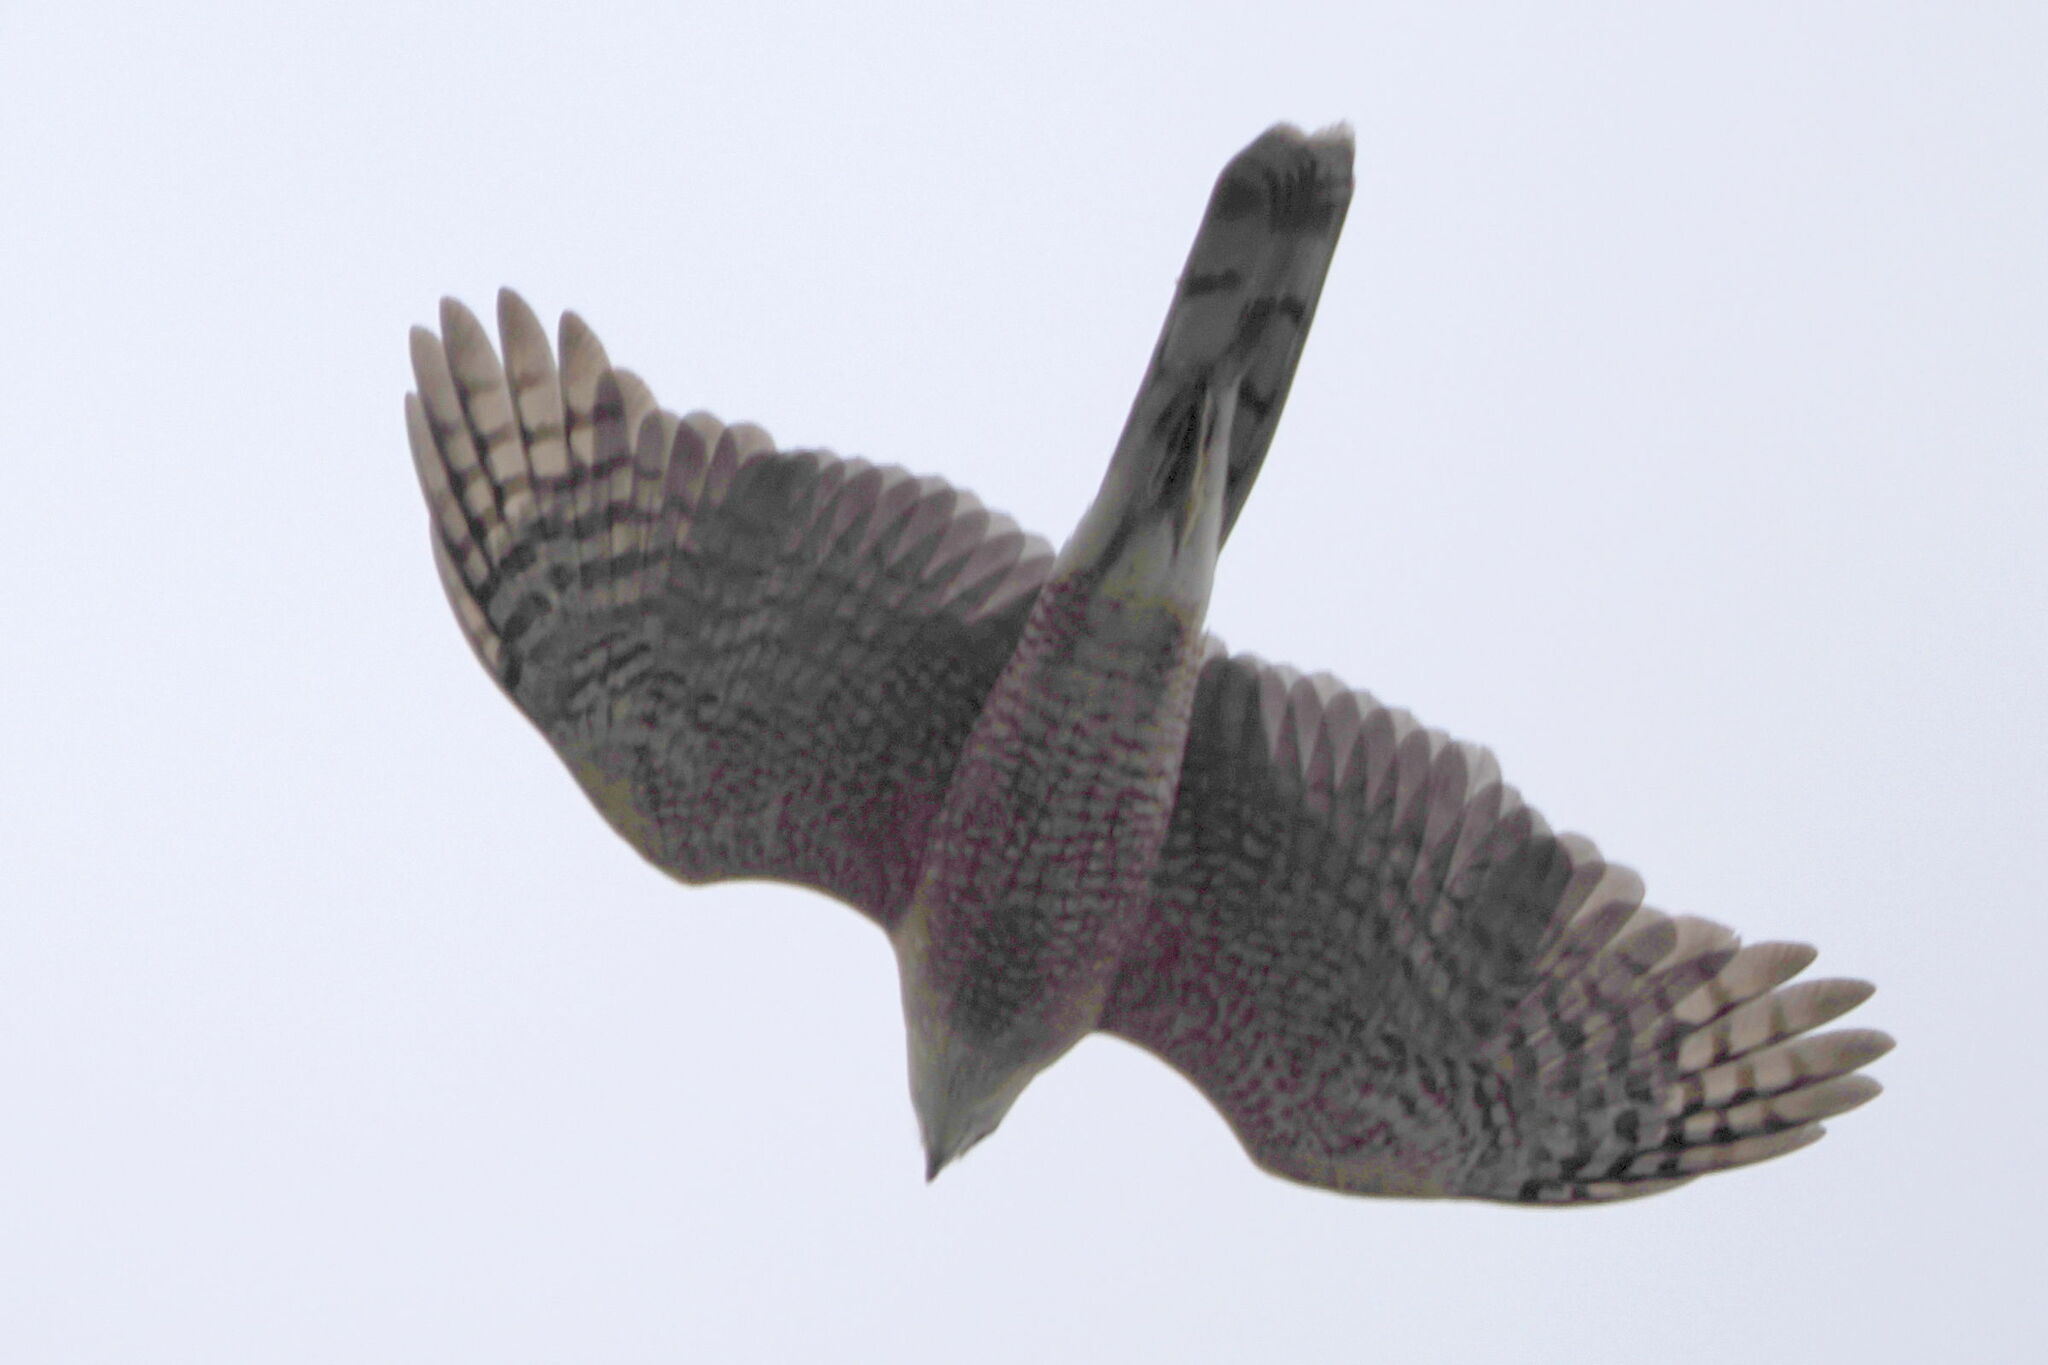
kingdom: Animalia
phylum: Chordata
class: Aves
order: Accipitriformes
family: Accipitridae
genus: Accipiter
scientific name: Accipiter cooperii
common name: Cooper's hawk
